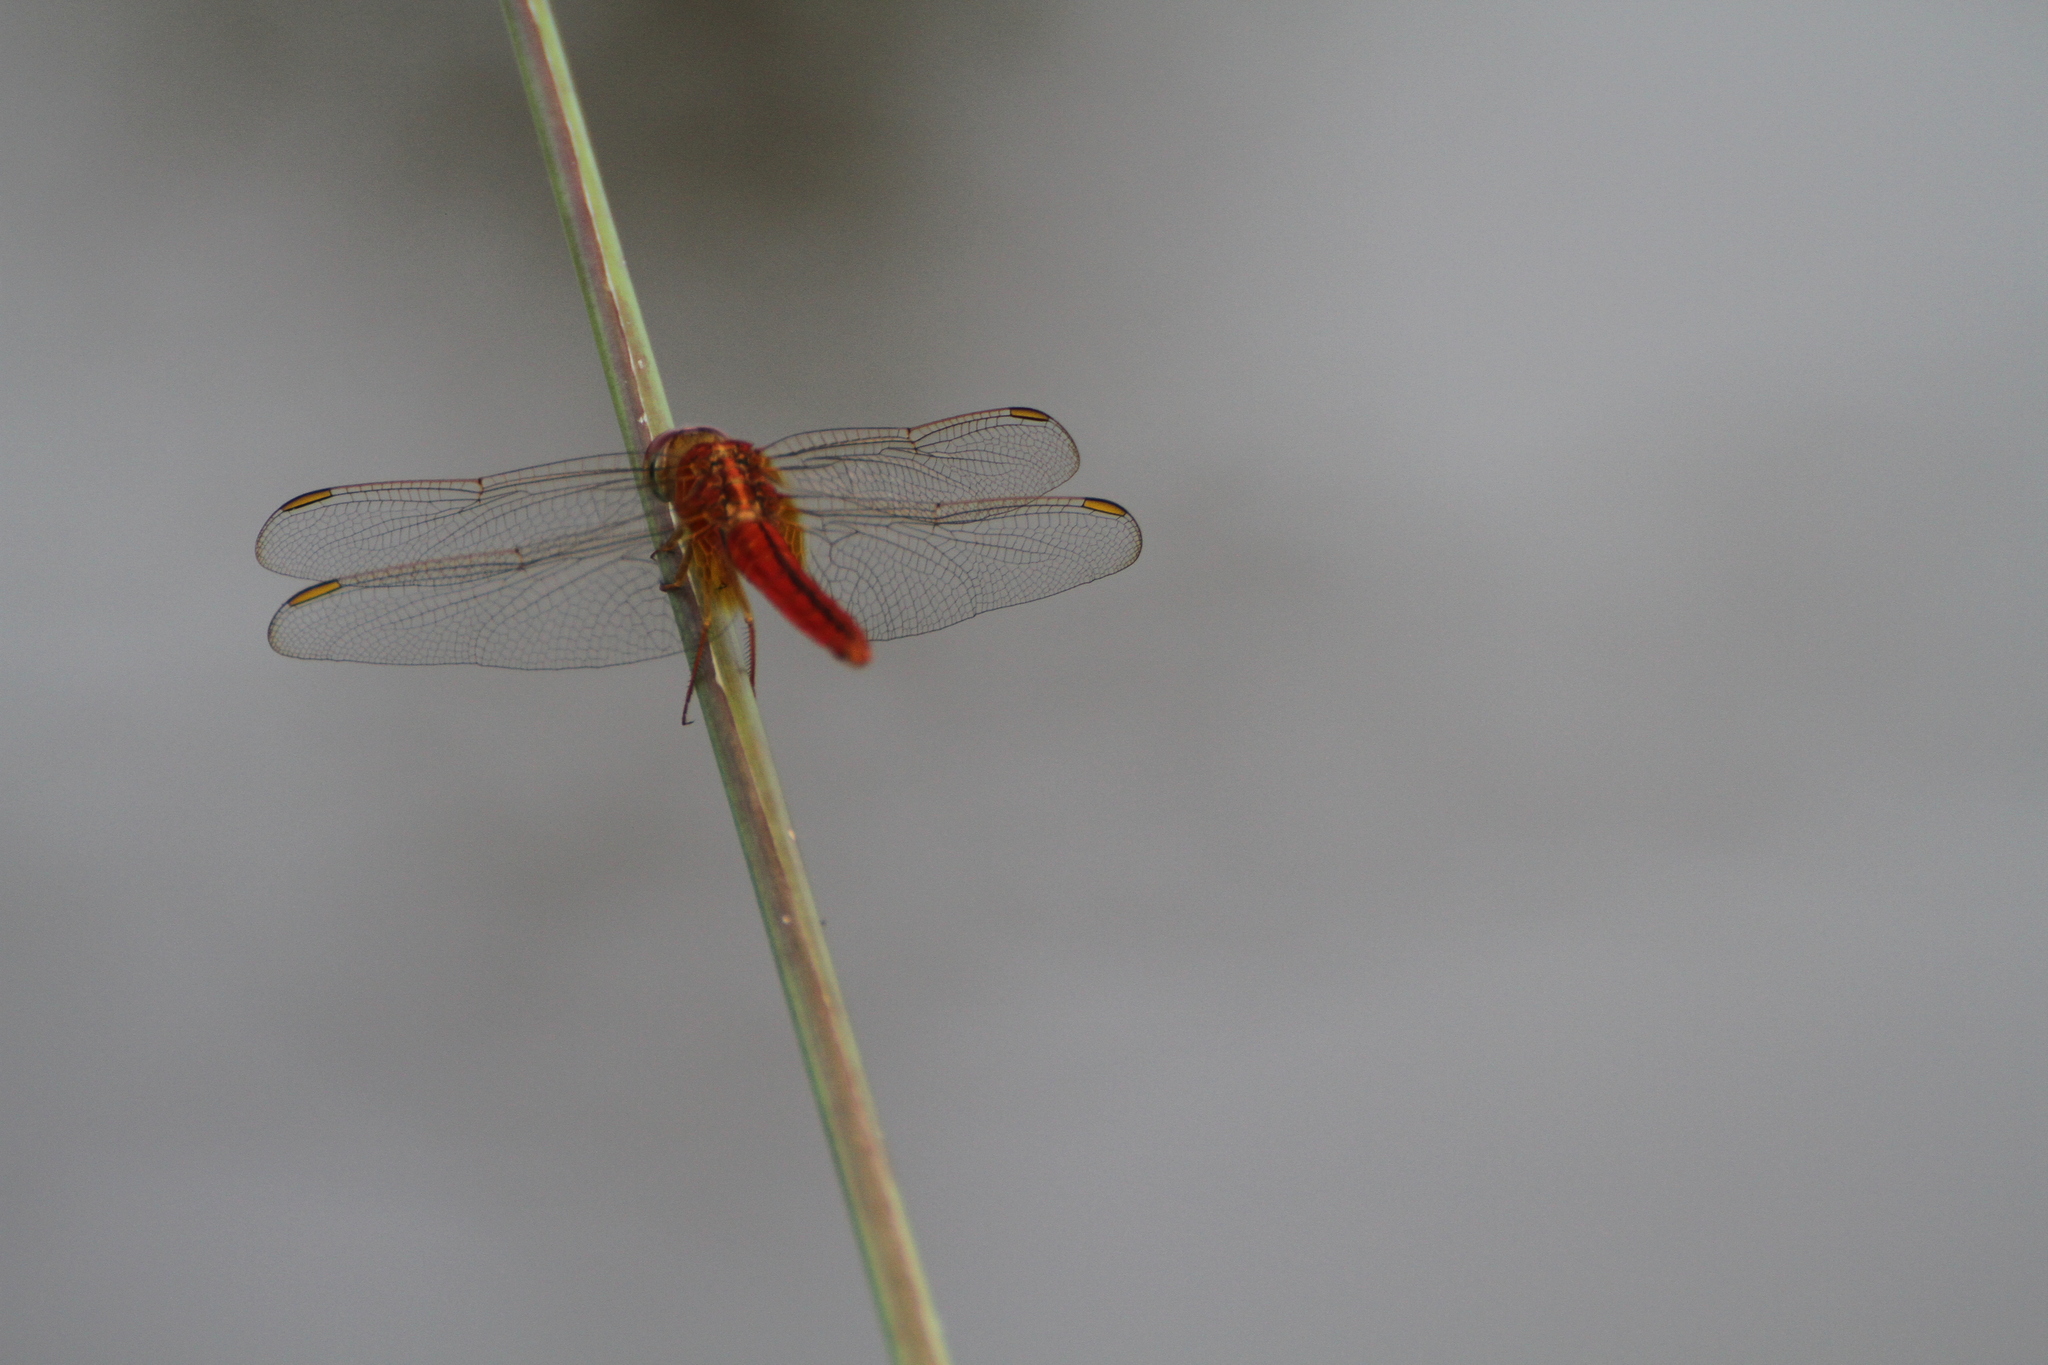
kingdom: Animalia
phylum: Arthropoda
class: Insecta
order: Odonata
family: Libellulidae
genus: Crocothemis
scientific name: Crocothemis servilia
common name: Scarlet skimmer
